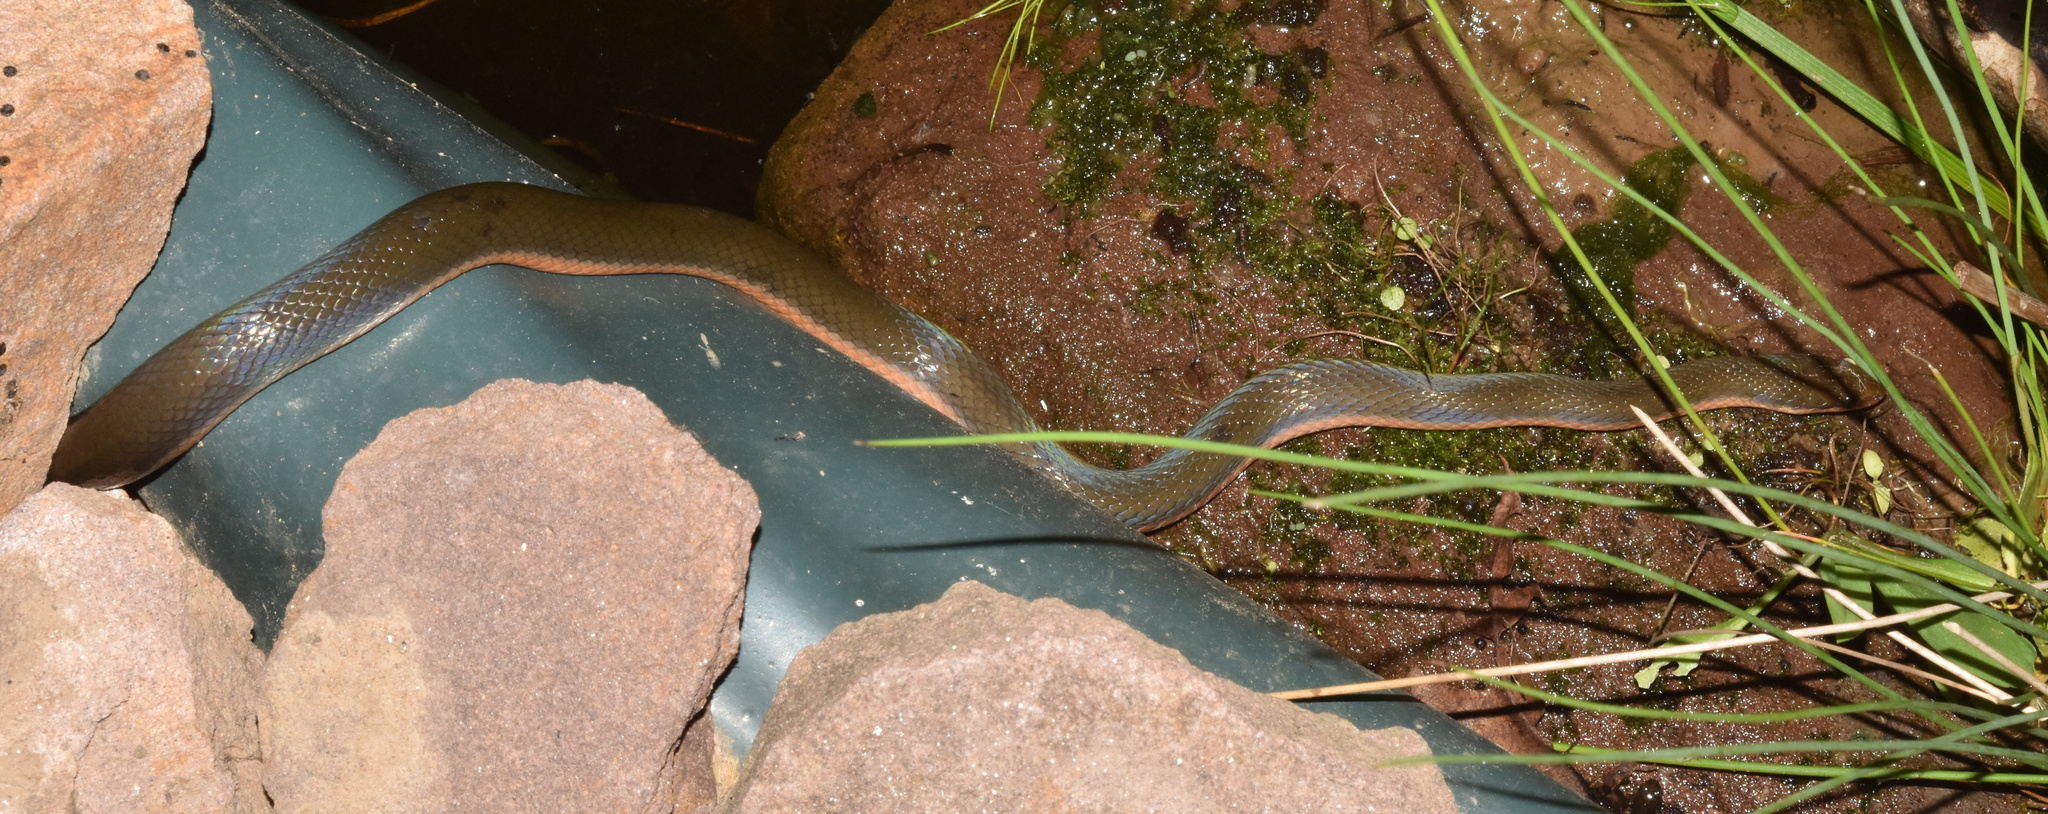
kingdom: Animalia
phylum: Chordata
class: Squamata
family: Lamprophiidae
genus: Lycodonomorphus
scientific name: Lycodonomorphus rufulus
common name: Brown water snake
